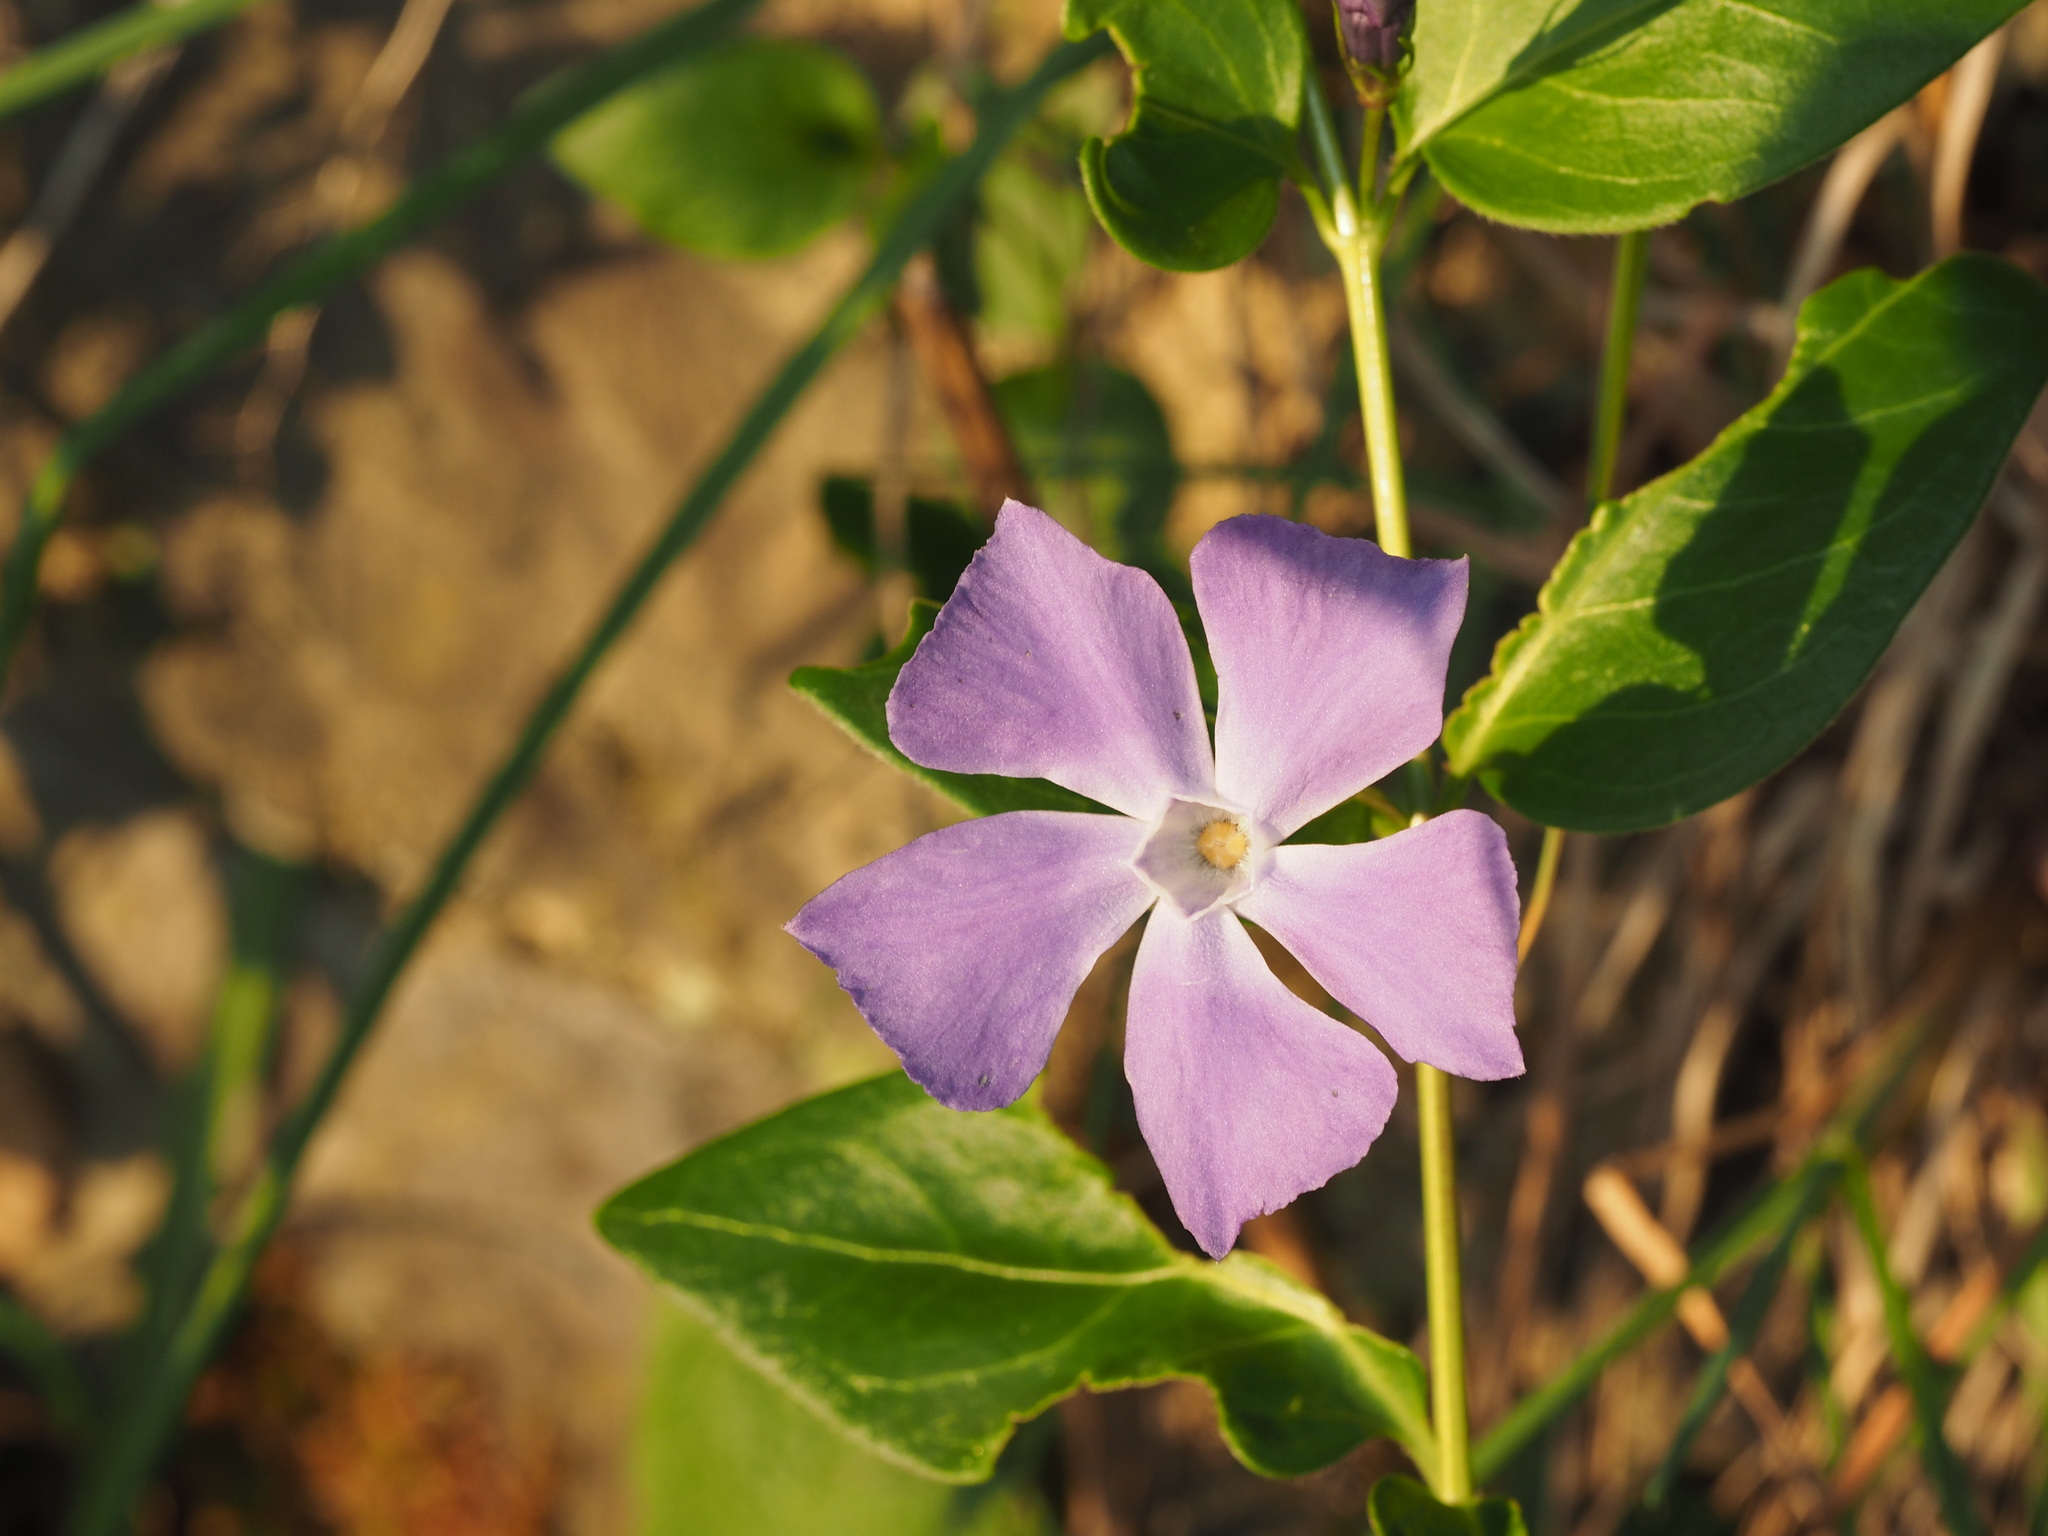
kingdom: Plantae
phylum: Tracheophyta
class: Magnoliopsida
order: Gentianales
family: Apocynaceae
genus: Vinca
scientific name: Vinca major
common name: Greater periwinkle
